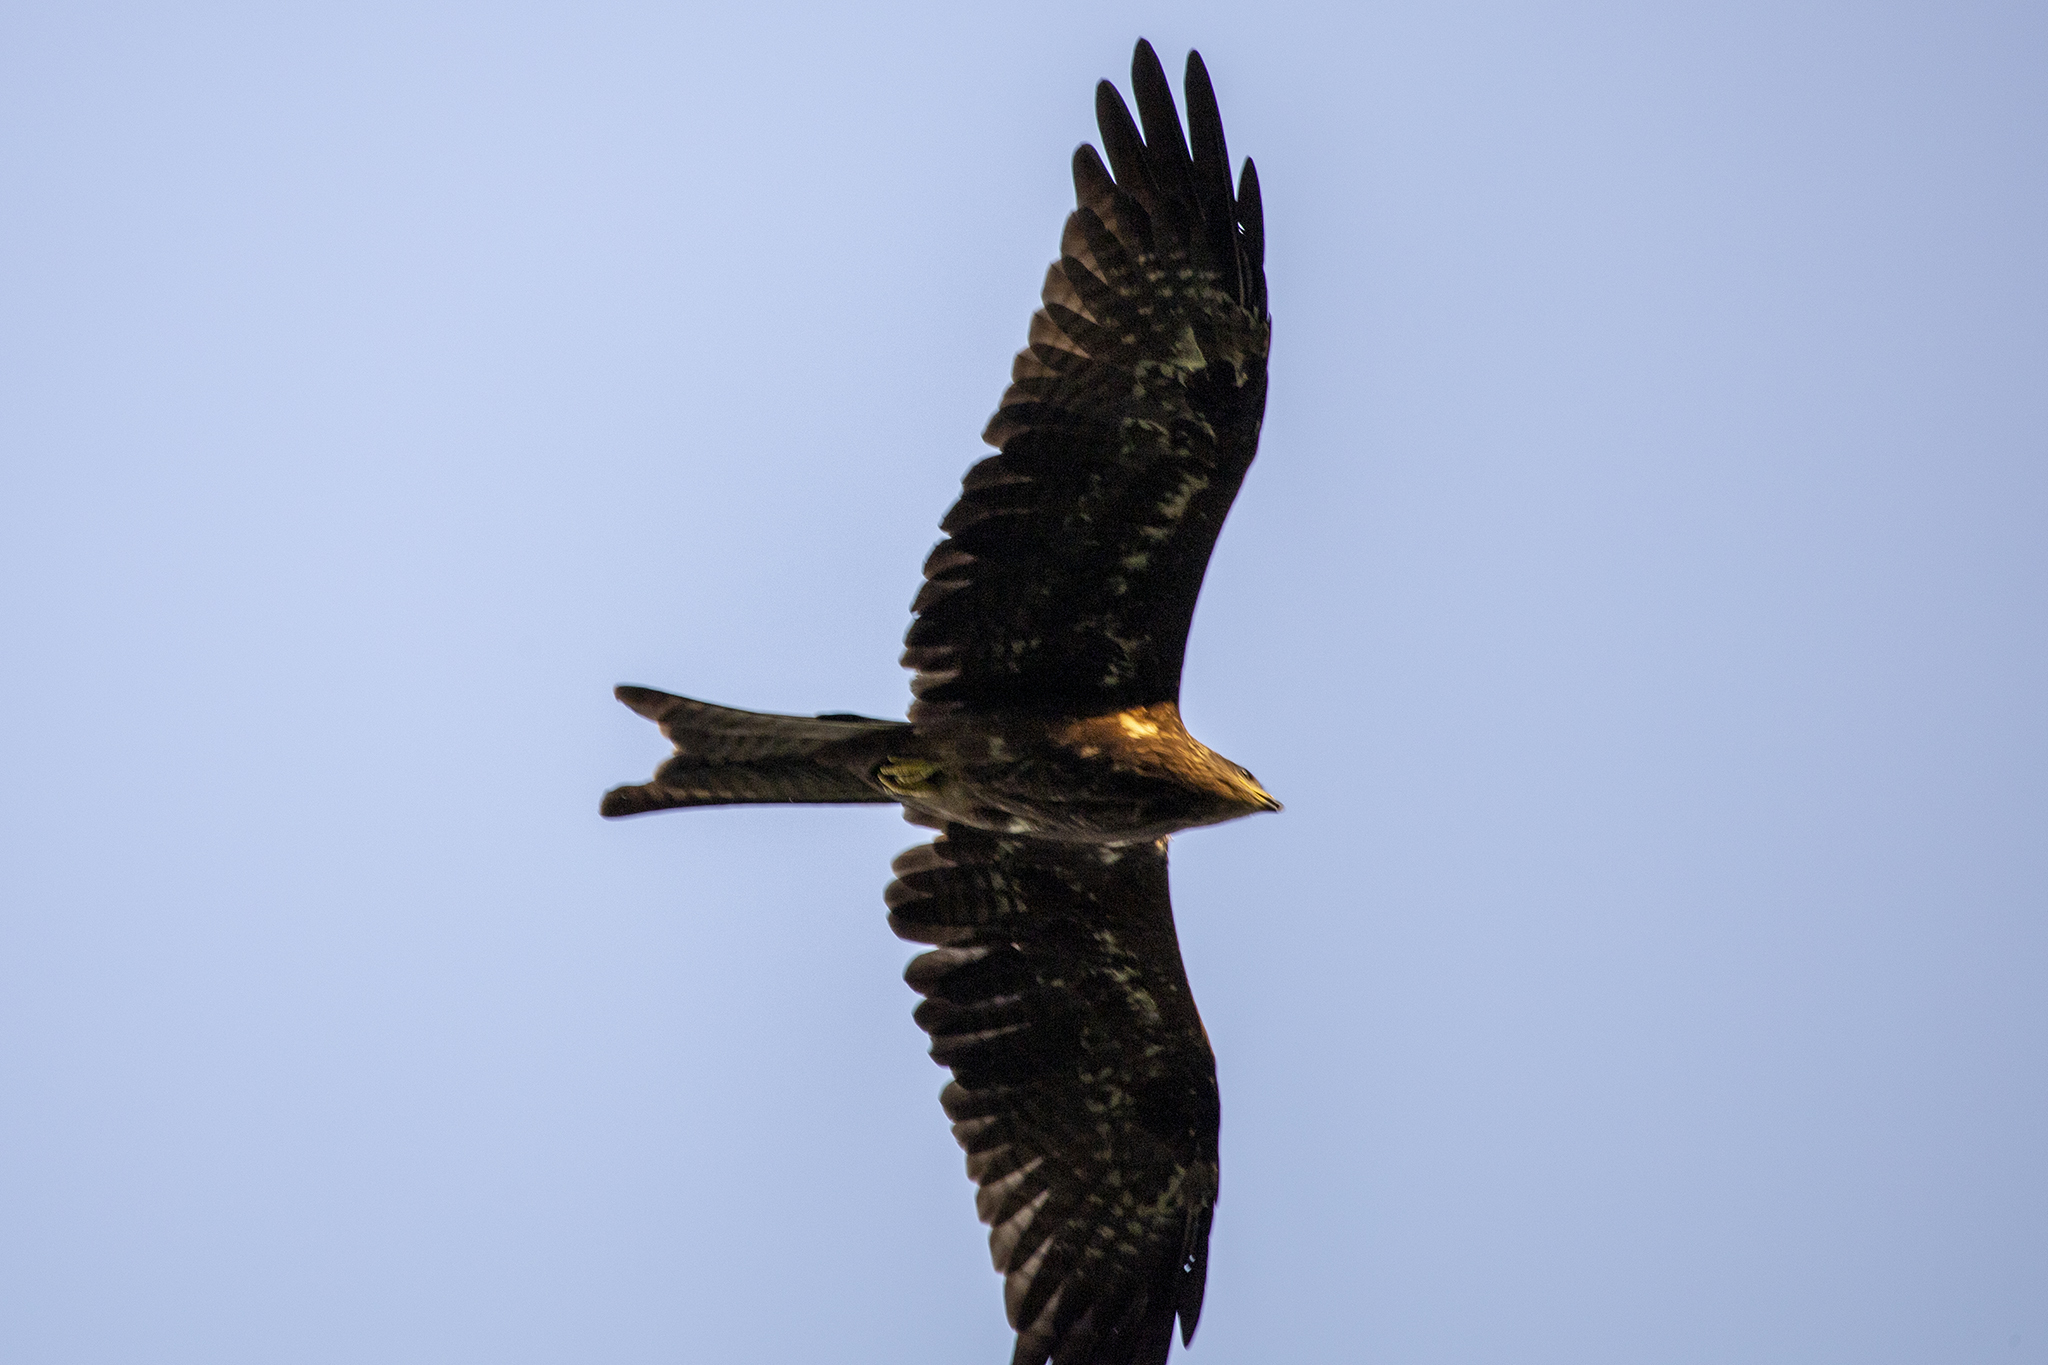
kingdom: Animalia
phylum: Chordata
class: Aves
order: Accipitriformes
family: Accipitridae
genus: Milvus
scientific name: Milvus migrans
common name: Black kite
